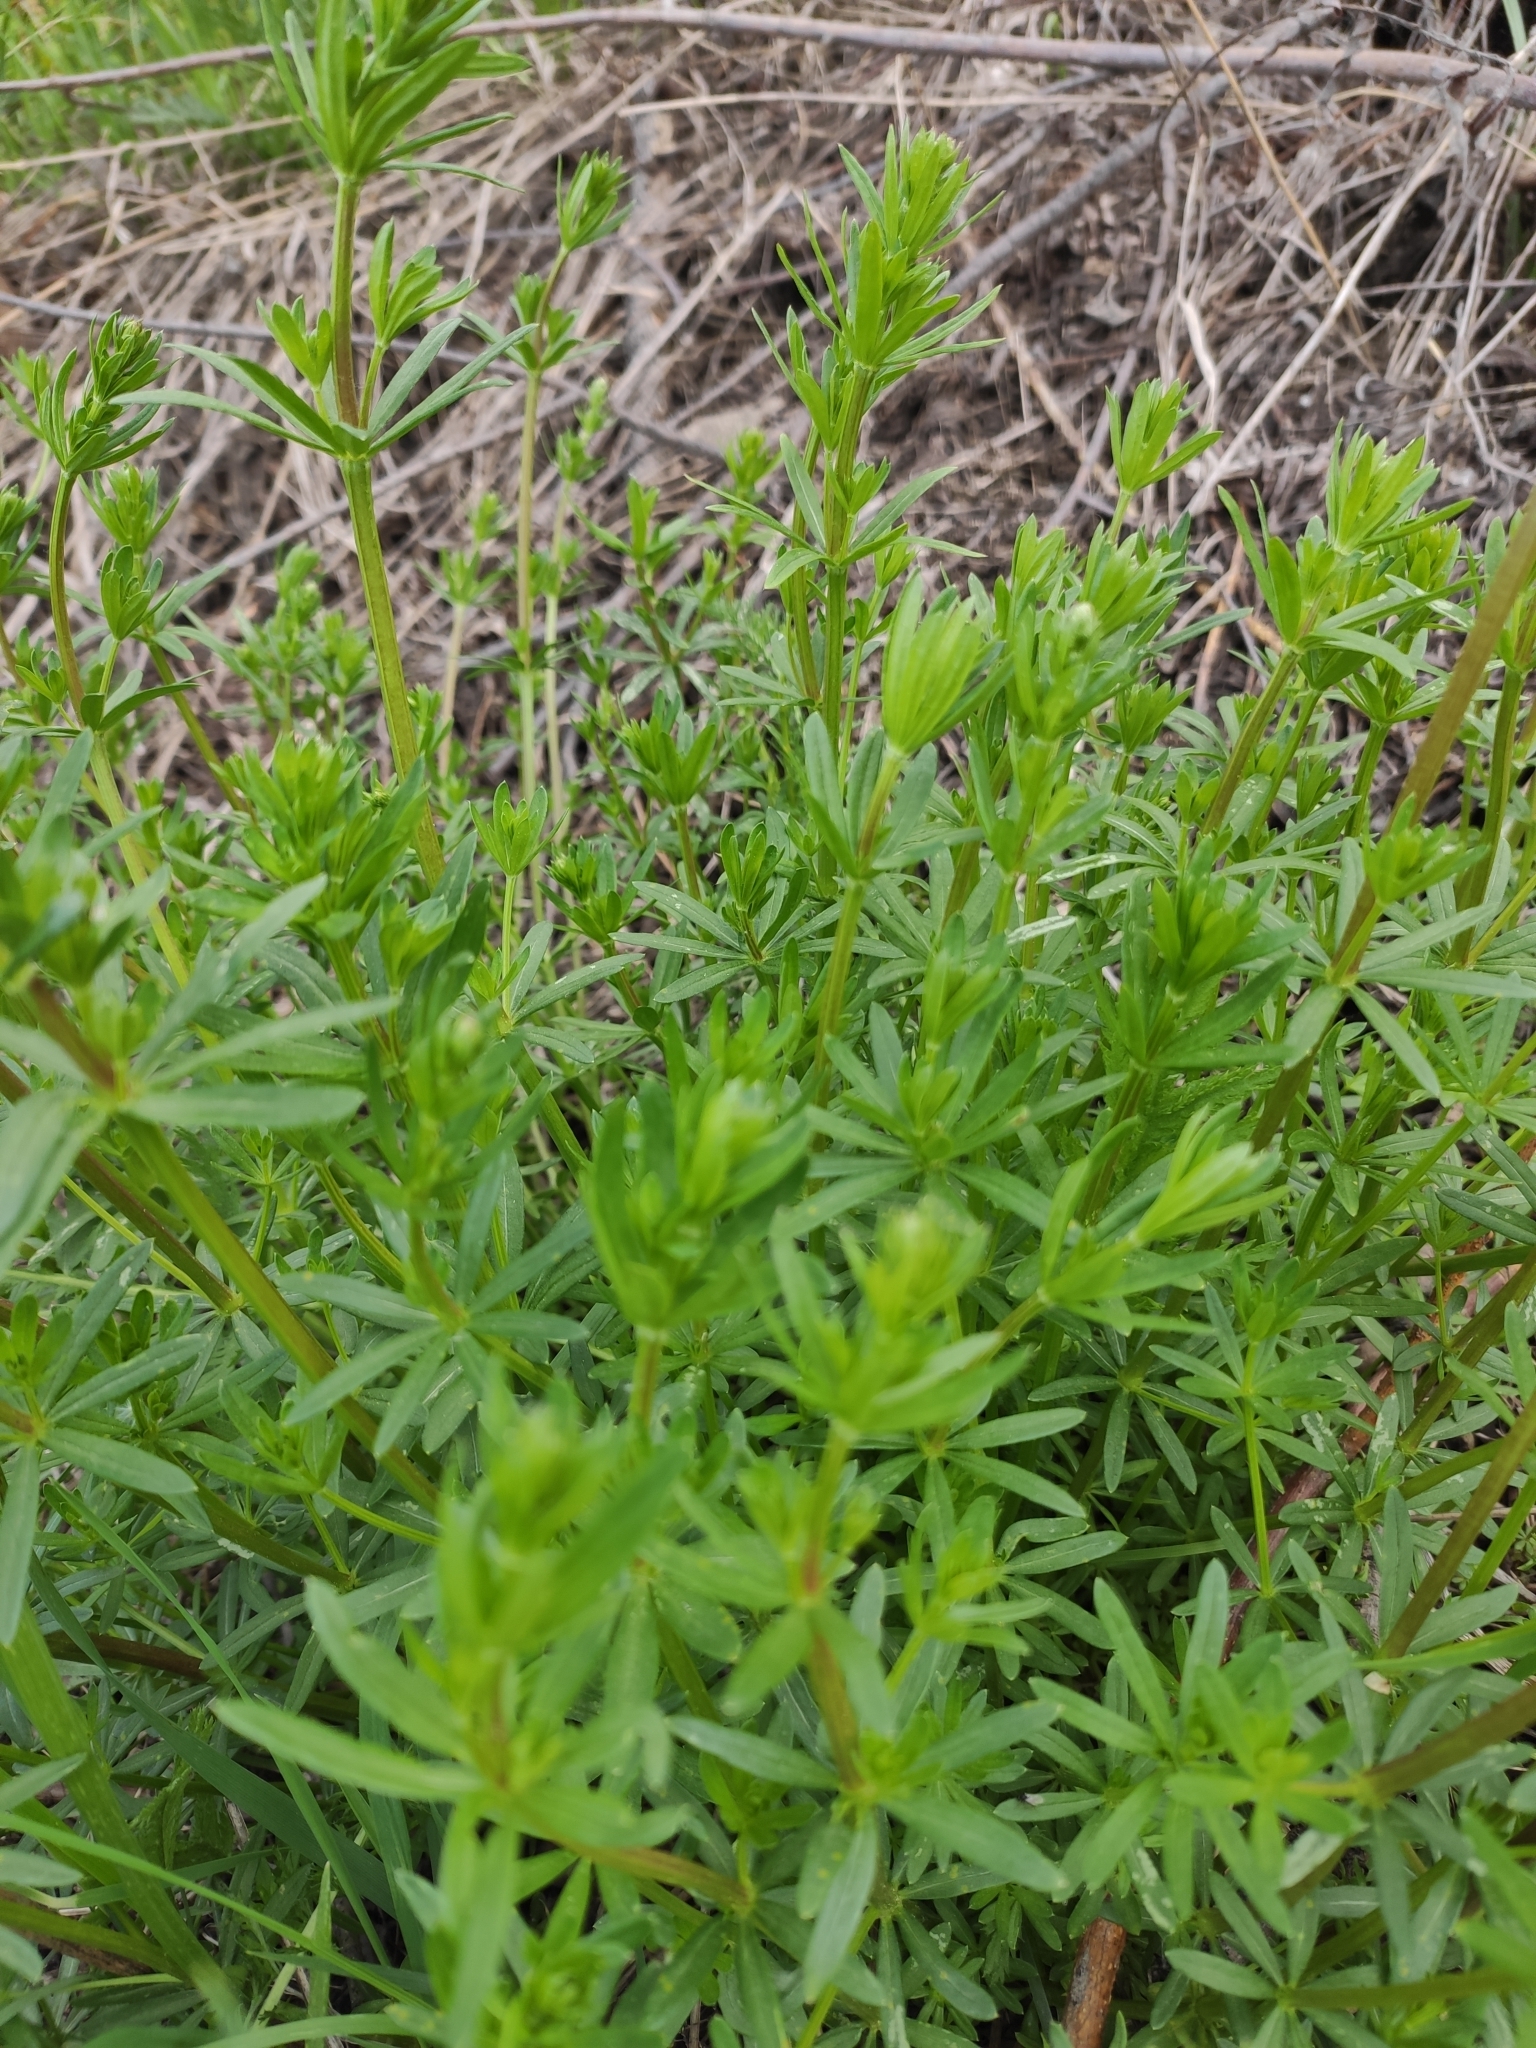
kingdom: Plantae
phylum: Tracheophyta
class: Magnoliopsida
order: Gentianales
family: Rubiaceae
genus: Galium
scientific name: Galium mollugo
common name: Hedge bedstraw
